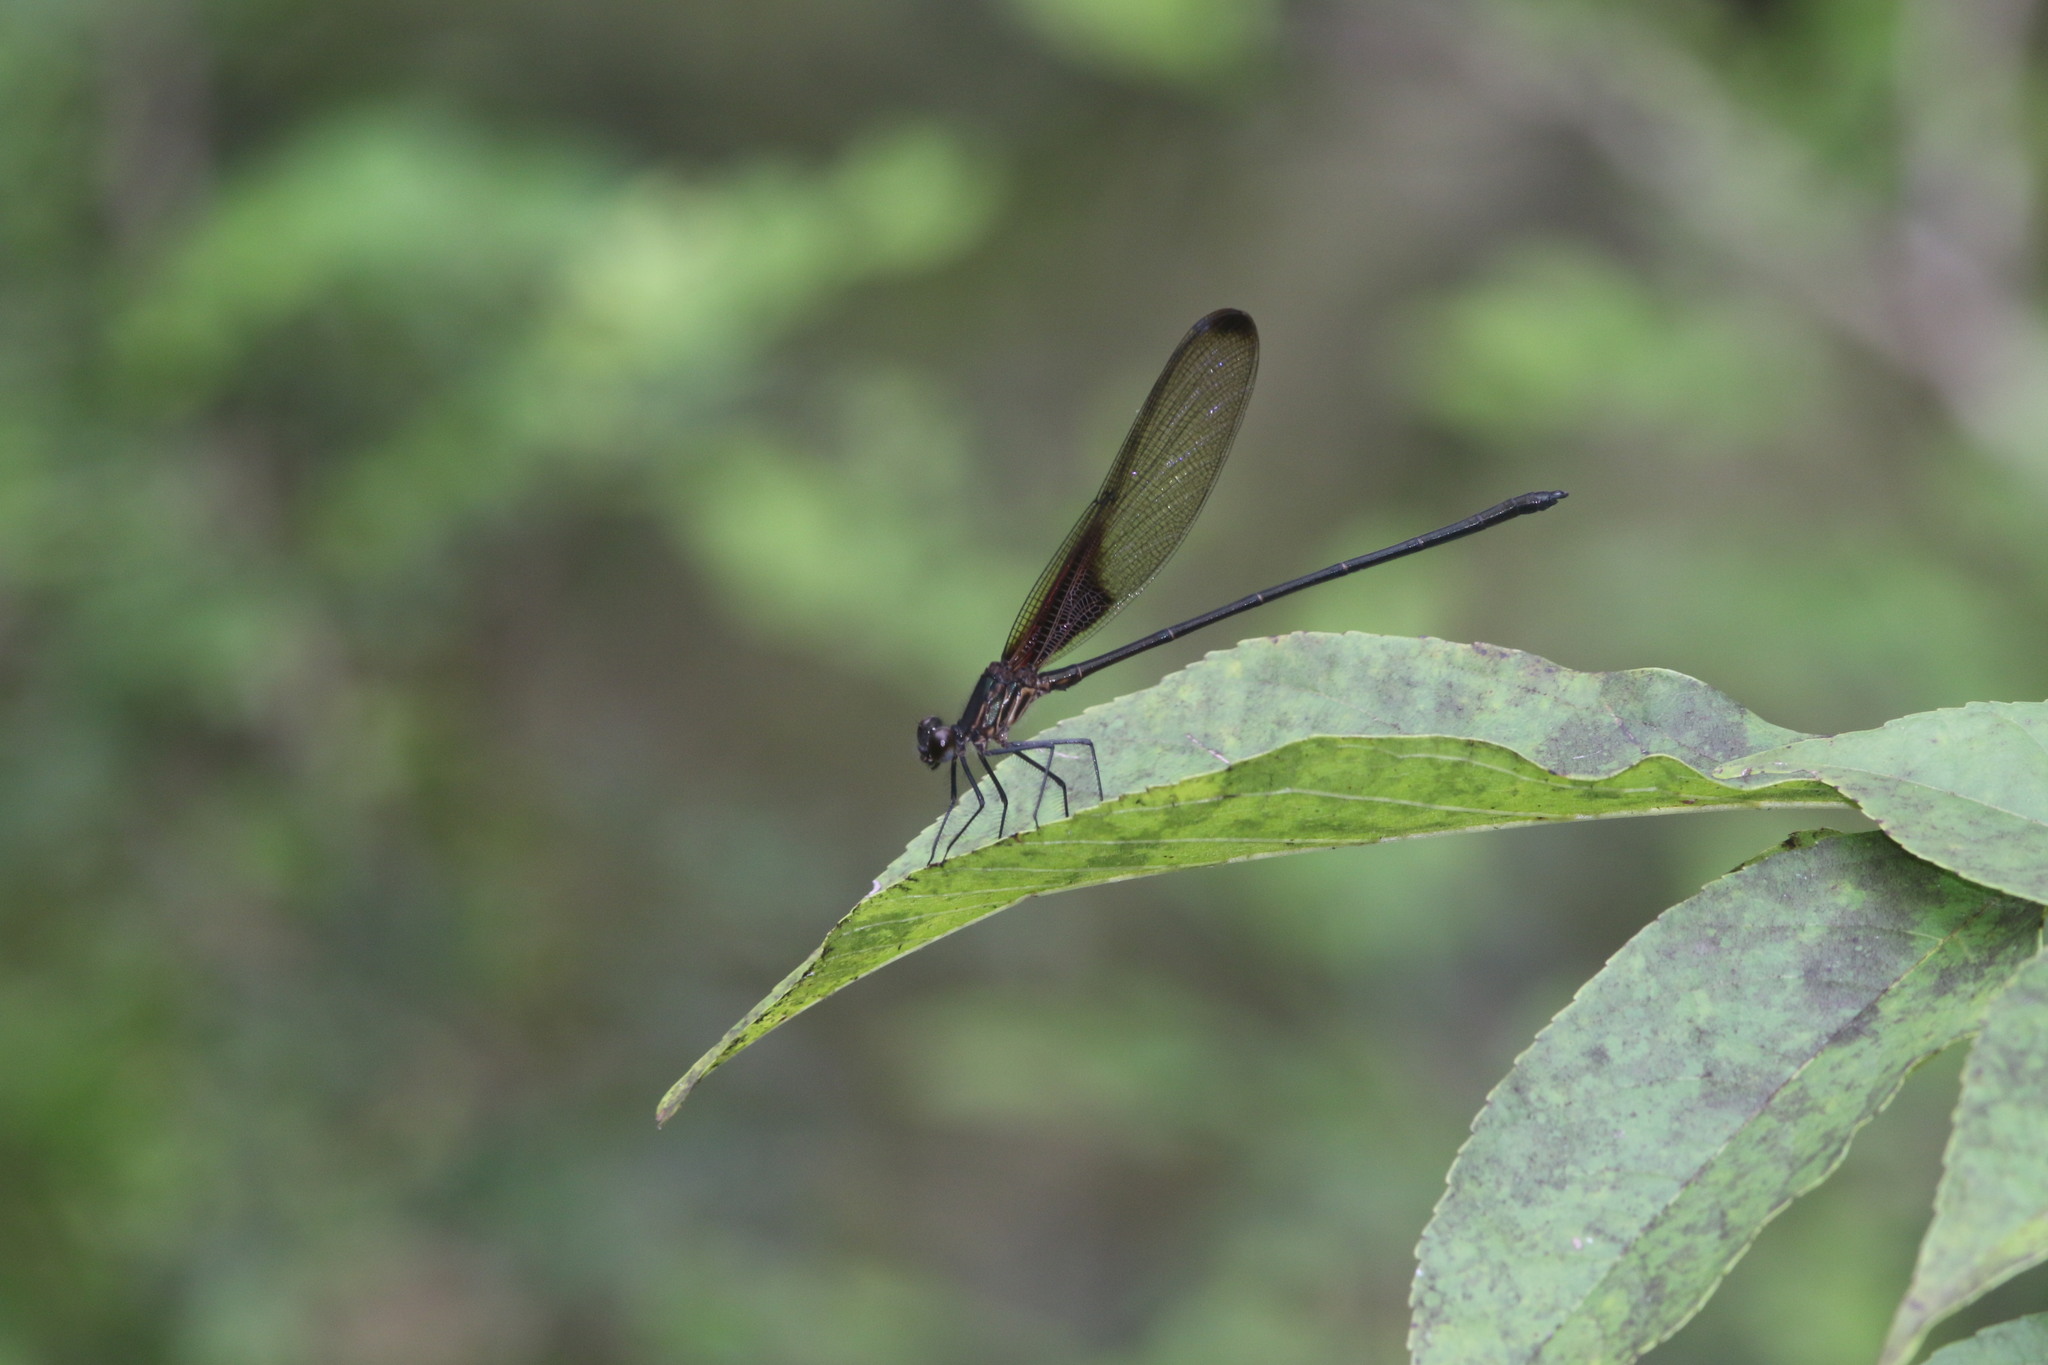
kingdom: Animalia
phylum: Arthropoda
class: Insecta
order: Odonata
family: Calopterygidae
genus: Hetaerina
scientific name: Hetaerina titia
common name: Smoky rubyspot
